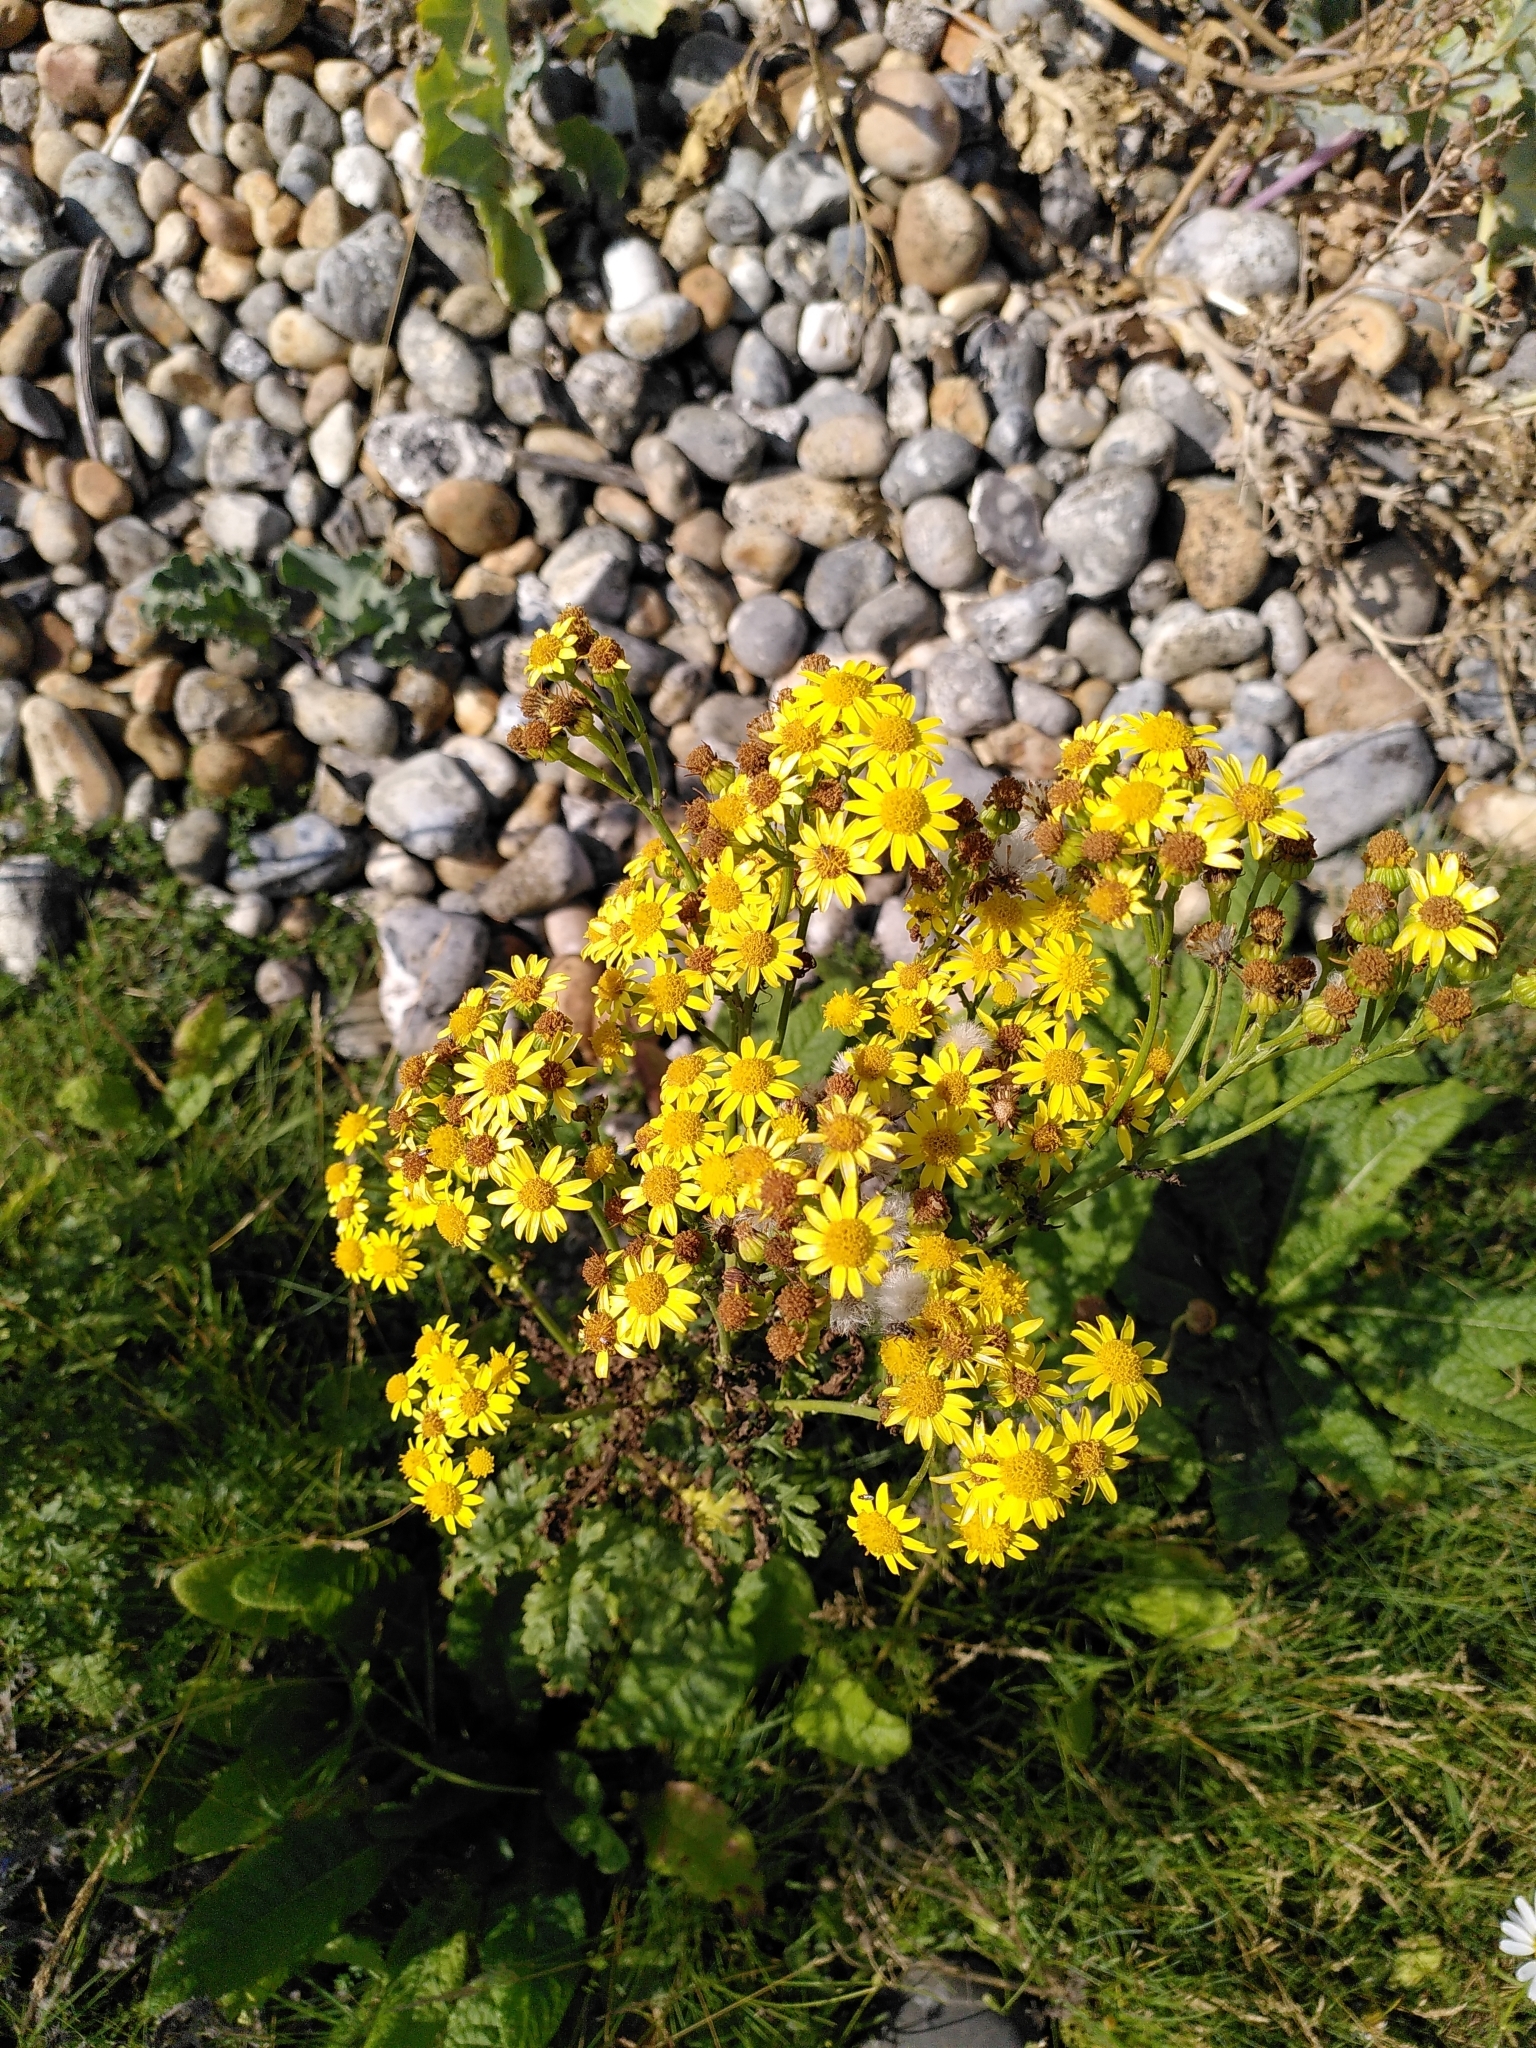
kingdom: Plantae
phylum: Tracheophyta
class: Magnoliopsida
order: Asterales
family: Asteraceae
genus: Jacobaea
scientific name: Jacobaea vulgaris
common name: Stinking willie
